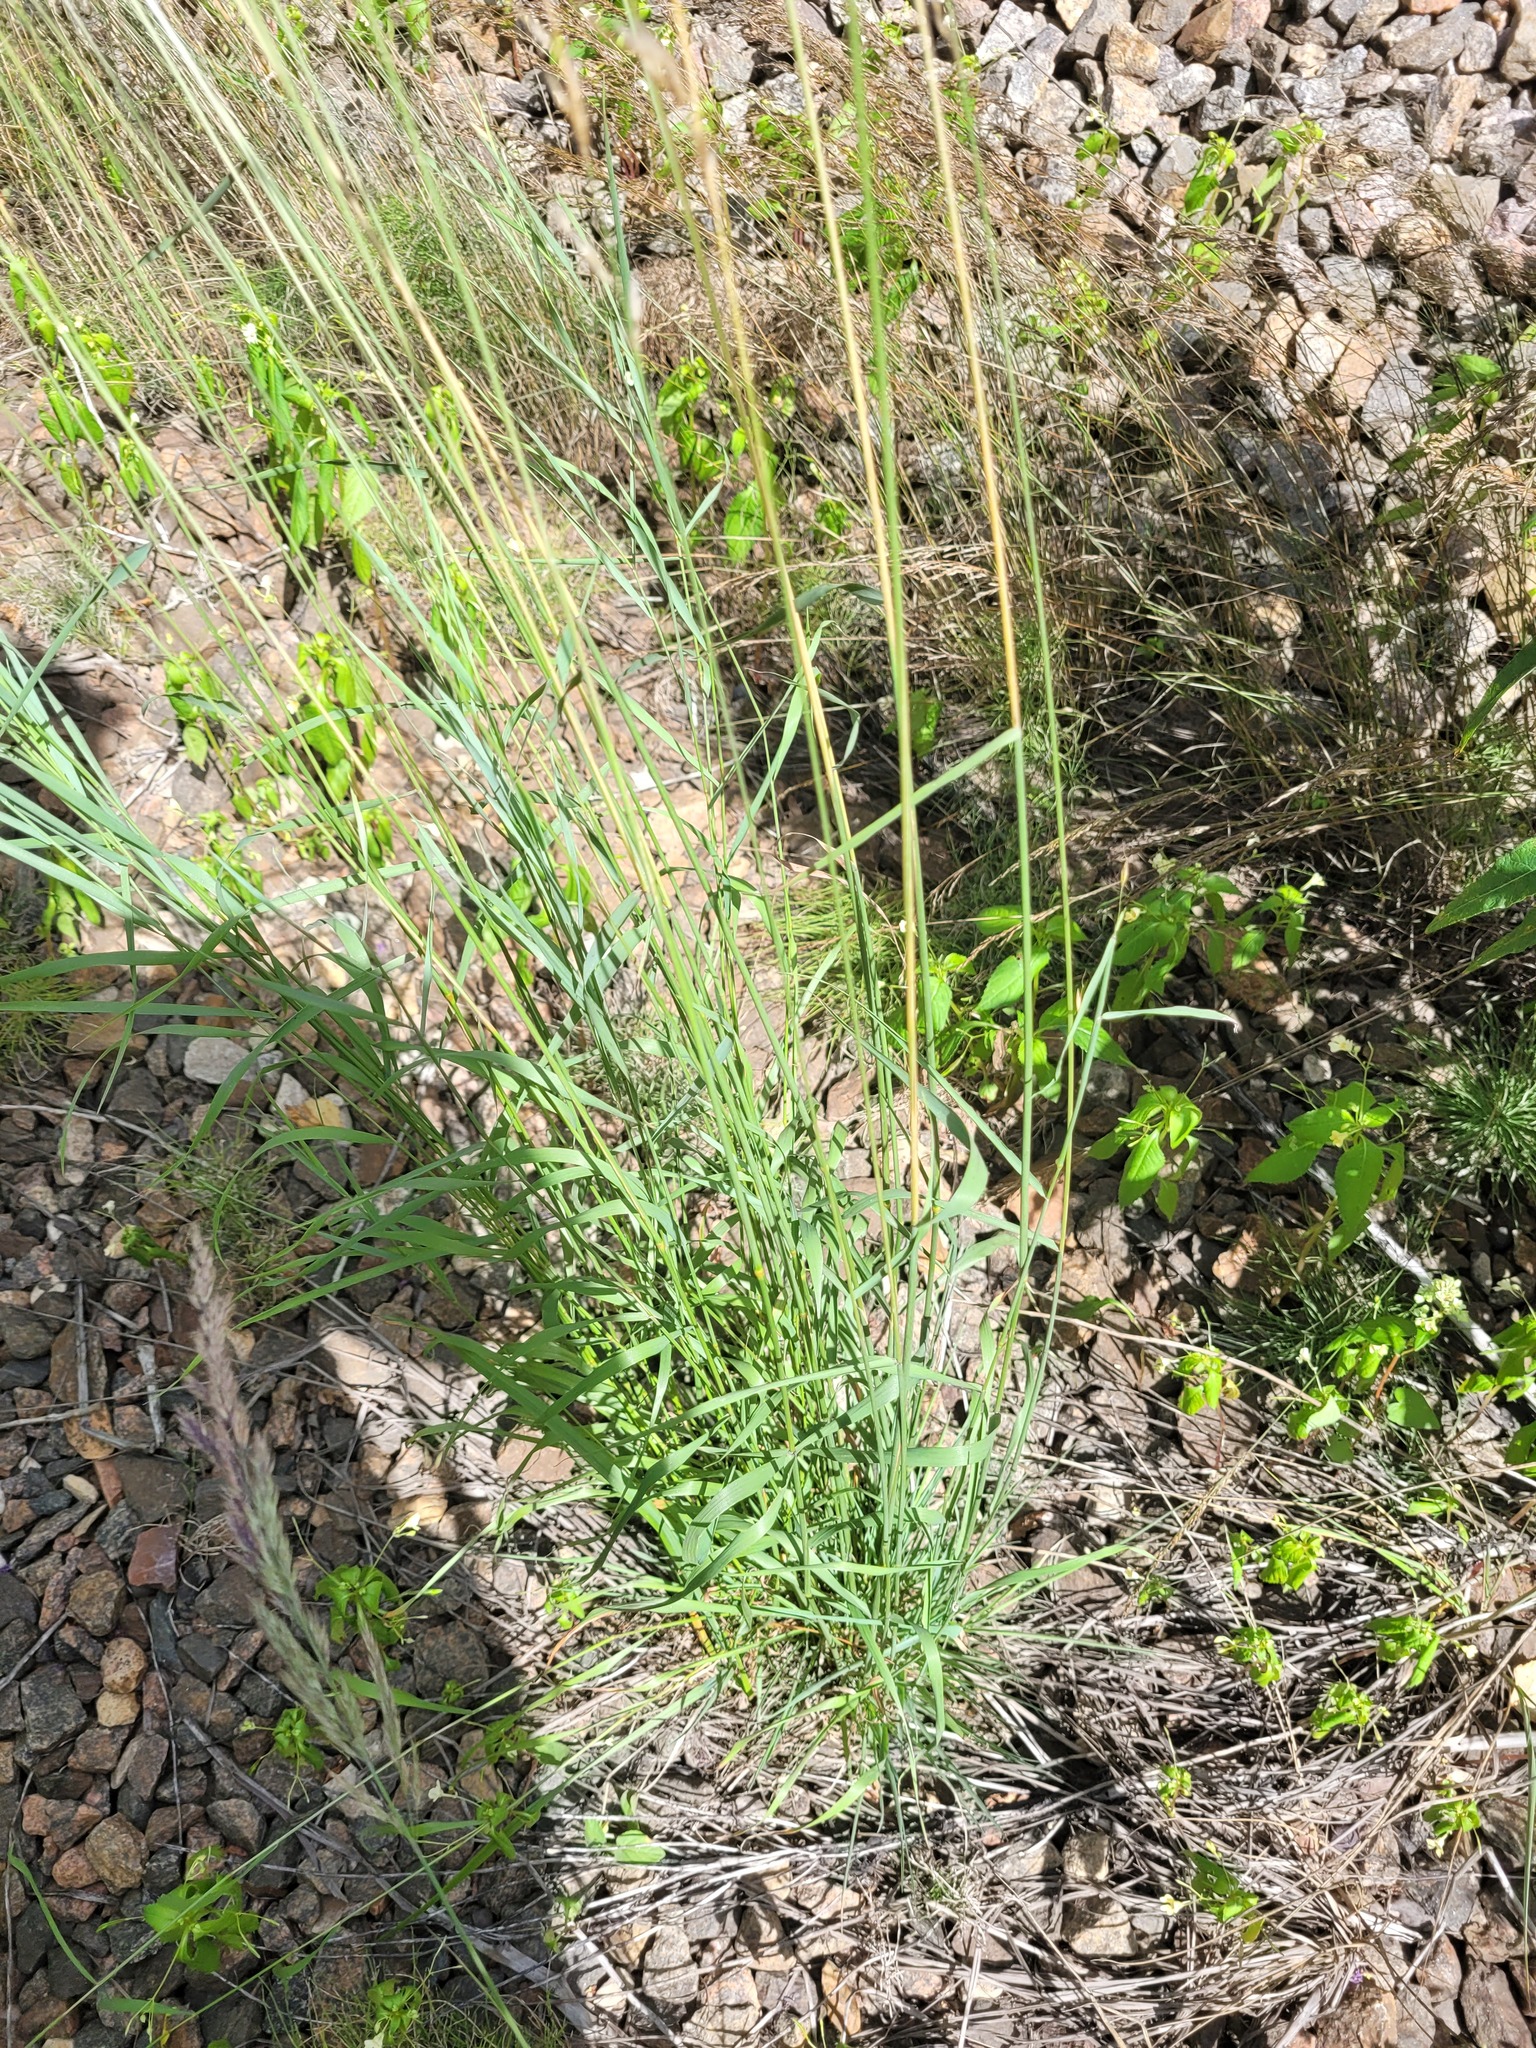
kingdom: Plantae
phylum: Tracheophyta
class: Liliopsida
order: Poales
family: Poaceae
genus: Arrhenatherum
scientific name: Arrhenatherum elatius
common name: Tall oatgrass
